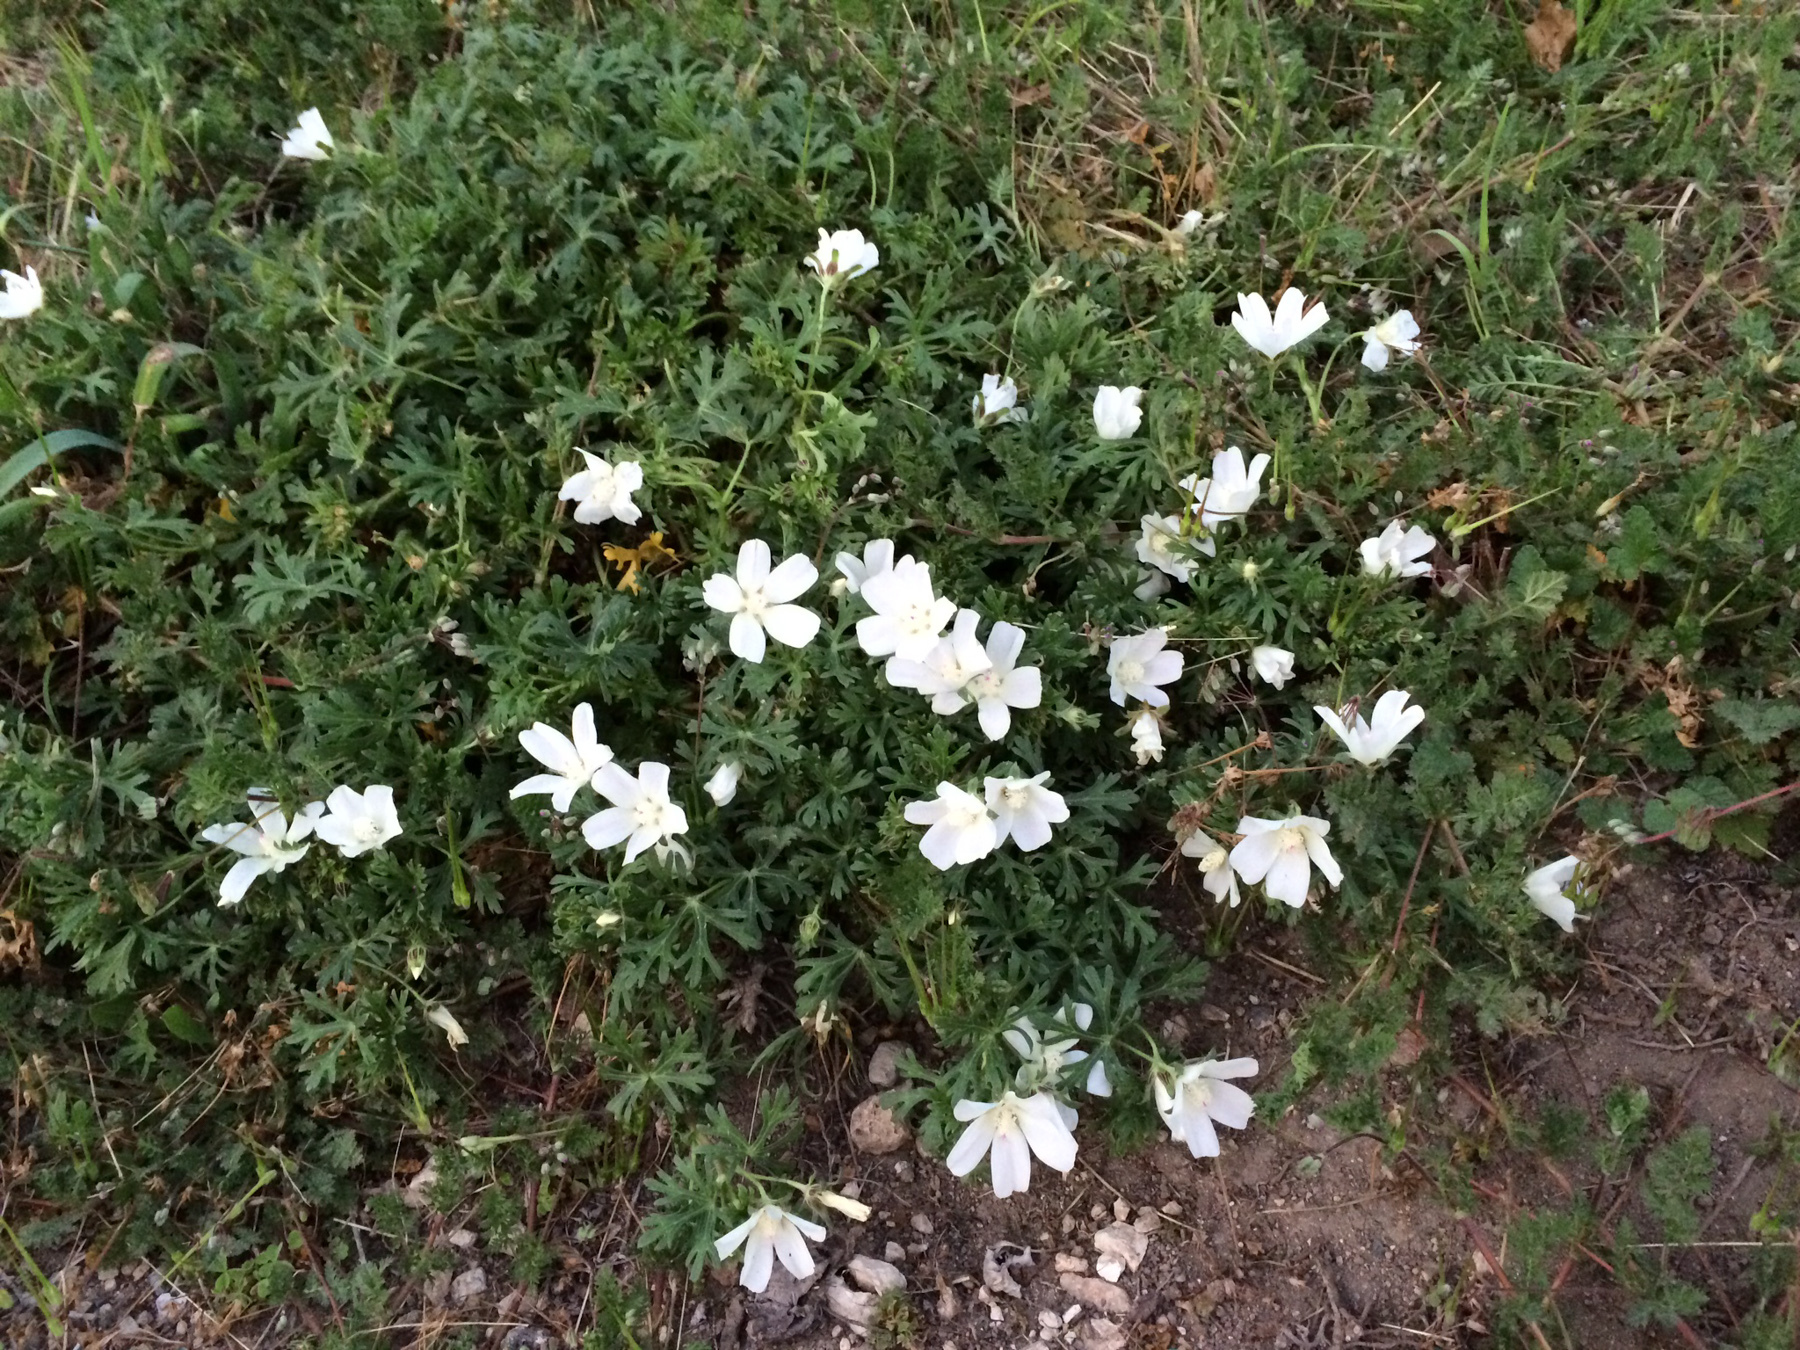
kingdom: Plantae
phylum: Tracheophyta
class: Magnoliopsida
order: Malvales
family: Malvaceae
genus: Callirhoe
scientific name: Callirhoe involucrata
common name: Purple poppy-mallow
